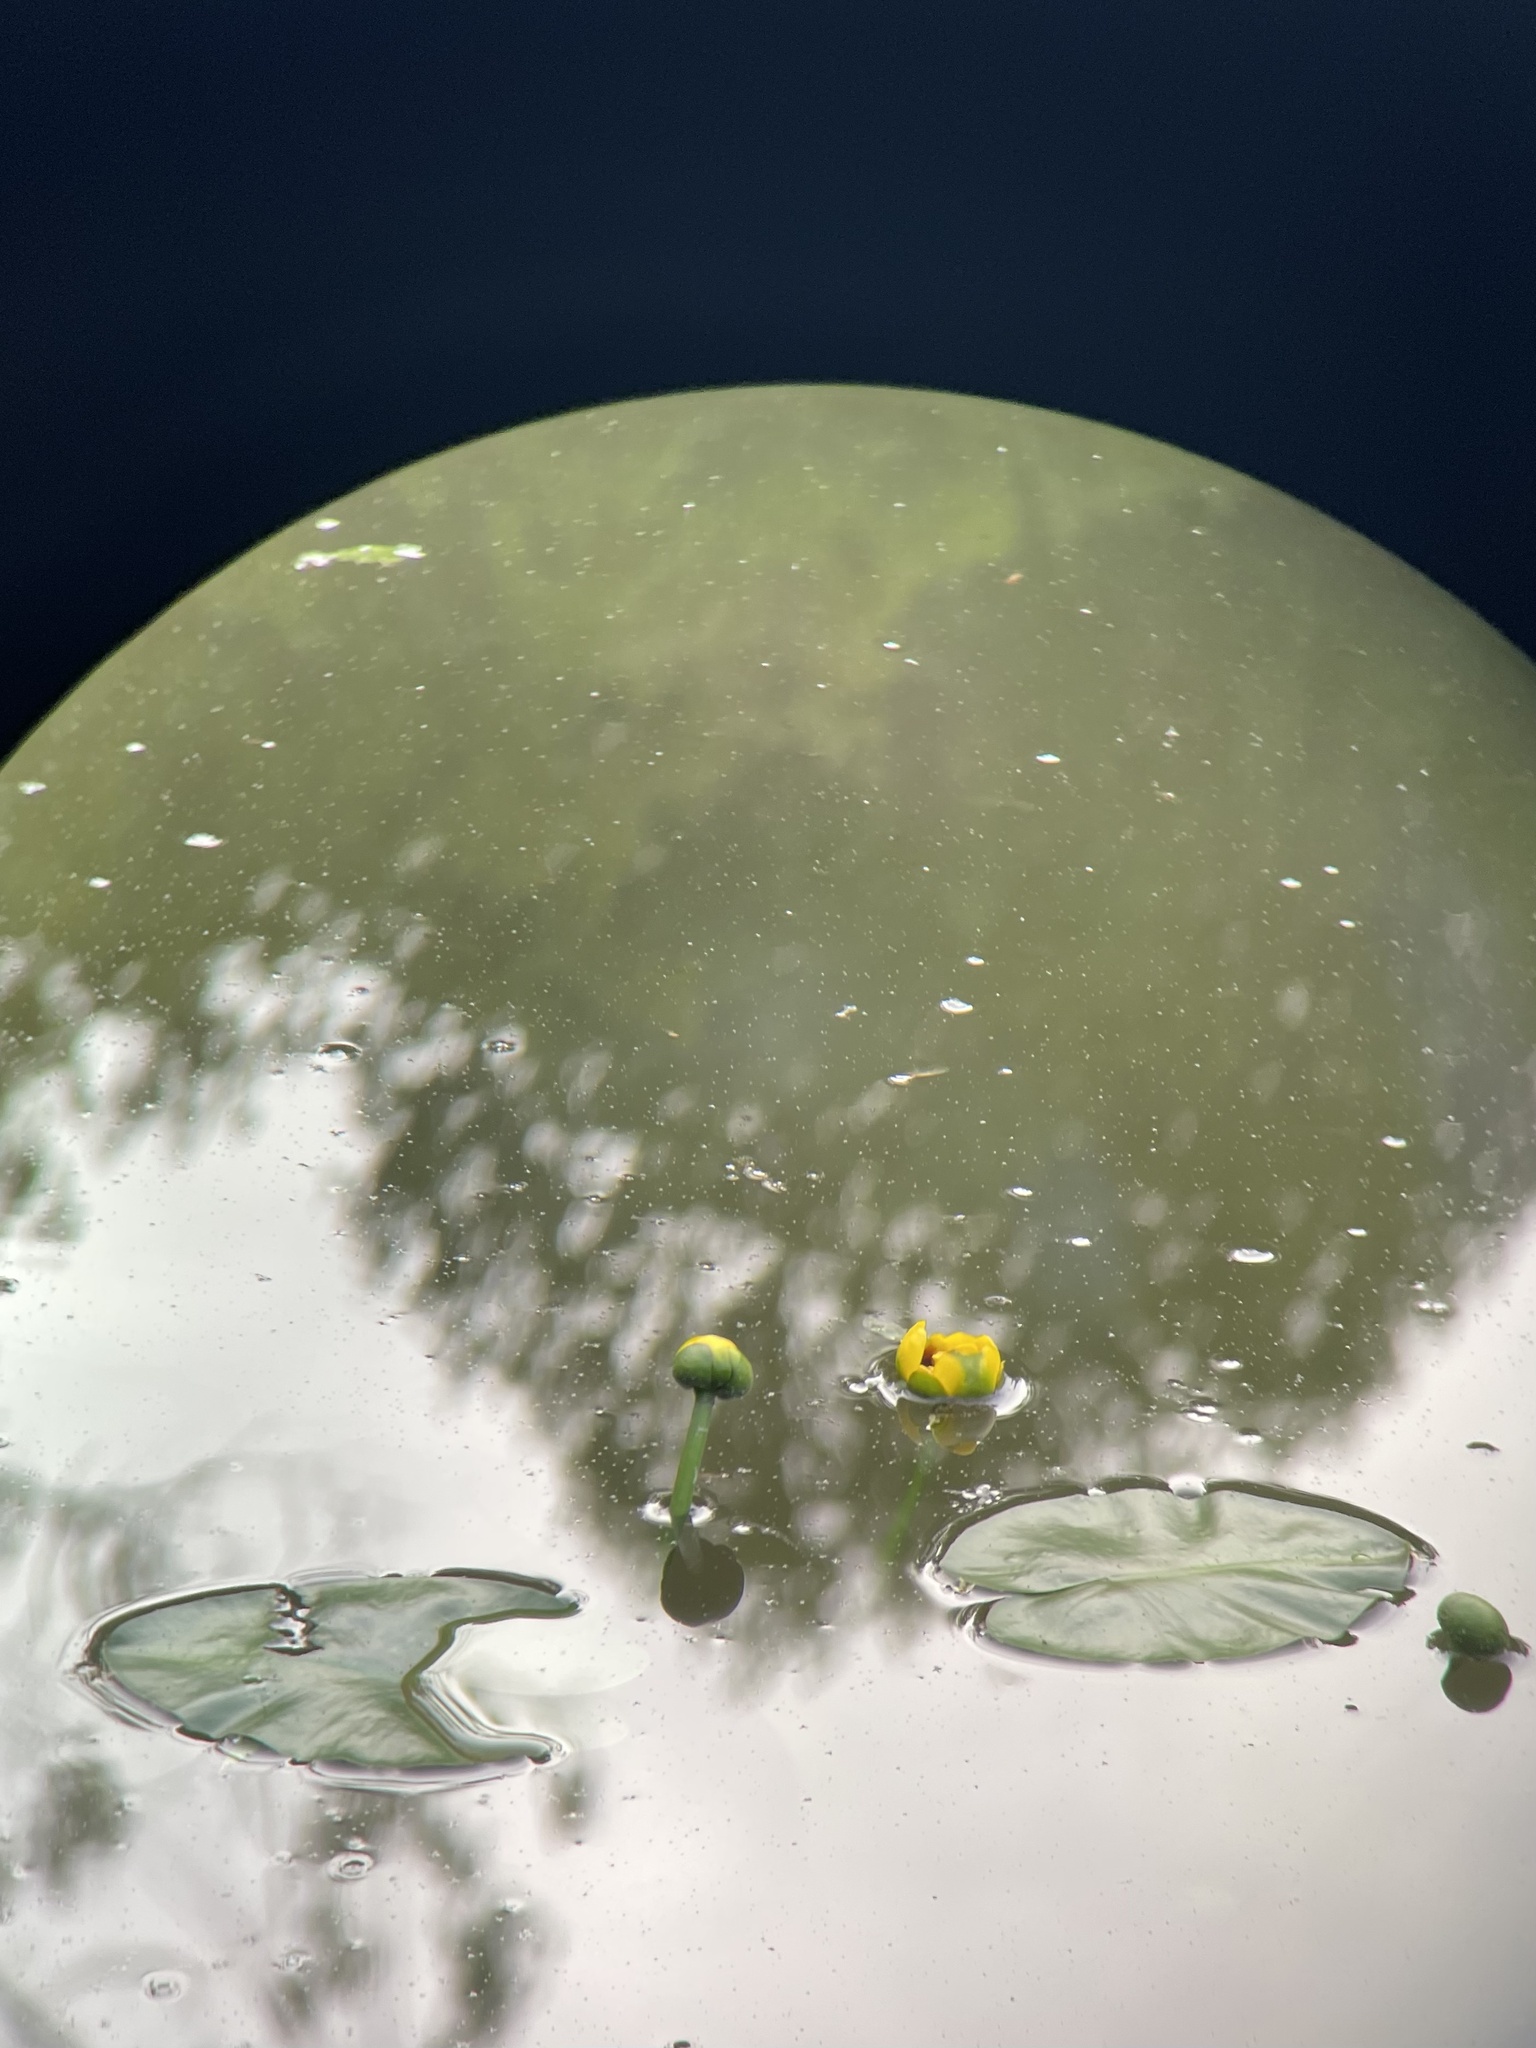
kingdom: Plantae
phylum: Tracheophyta
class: Magnoliopsida
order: Nymphaeales
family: Nymphaeaceae
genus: Nuphar
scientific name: Nuphar advena
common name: Spatter-dock
